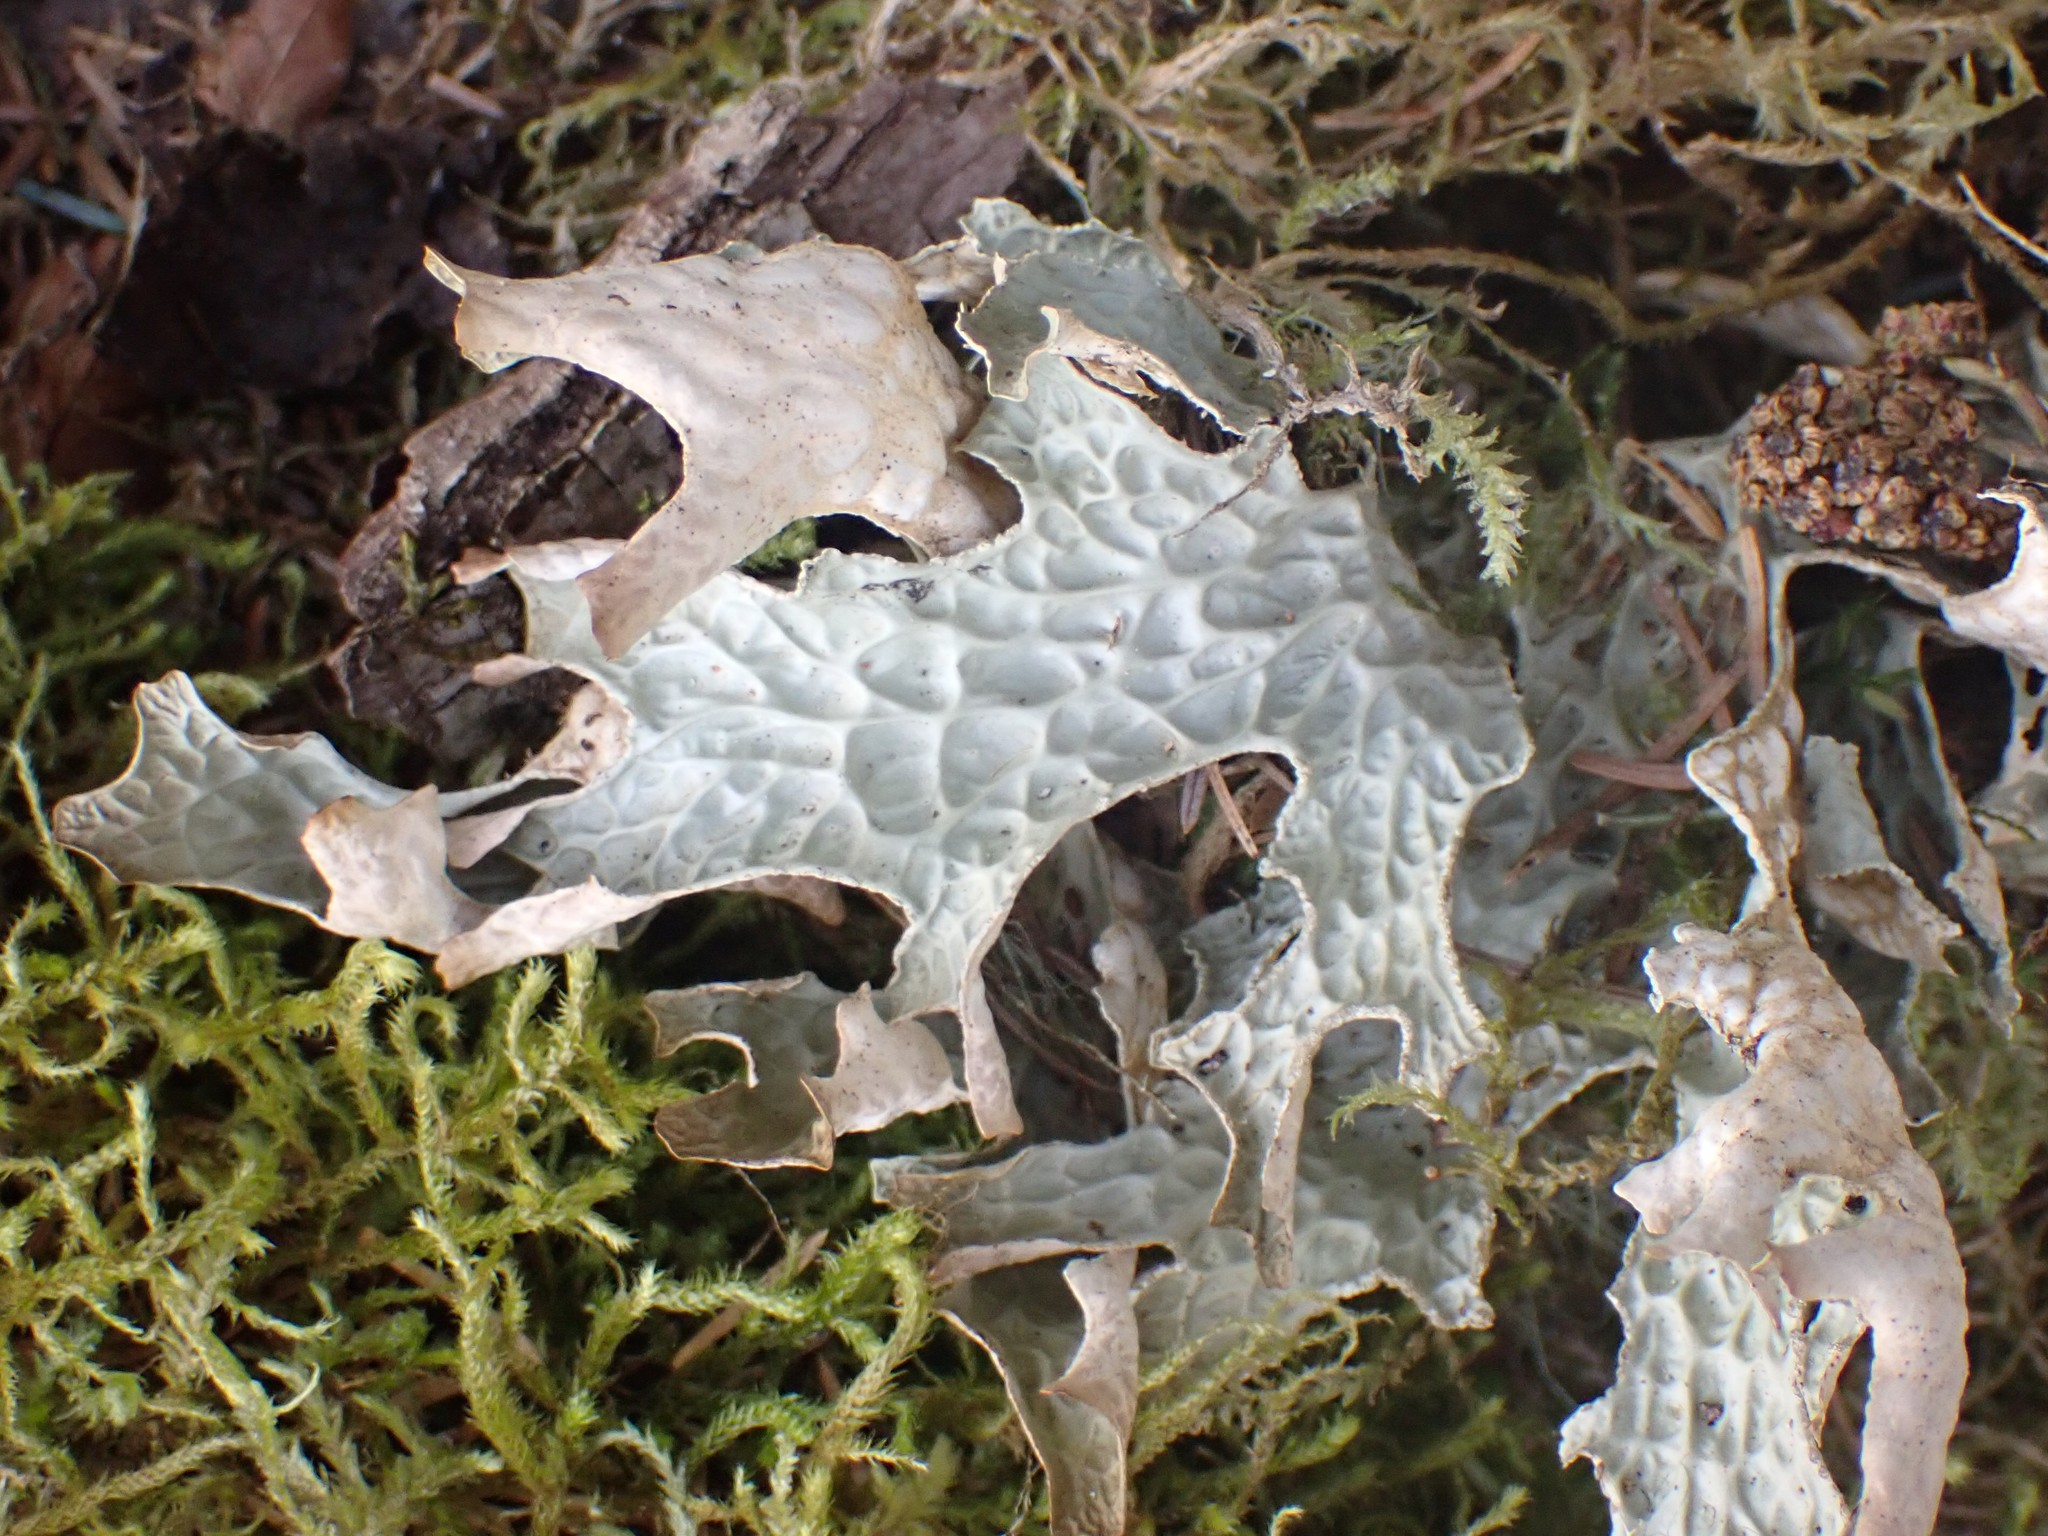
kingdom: Fungi
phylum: Ascomycota
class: Lecanoromycetes
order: Peltigerales
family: Lobariaceae
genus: Lobaria
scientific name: Lobaria pulmonaria
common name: Lungwort
